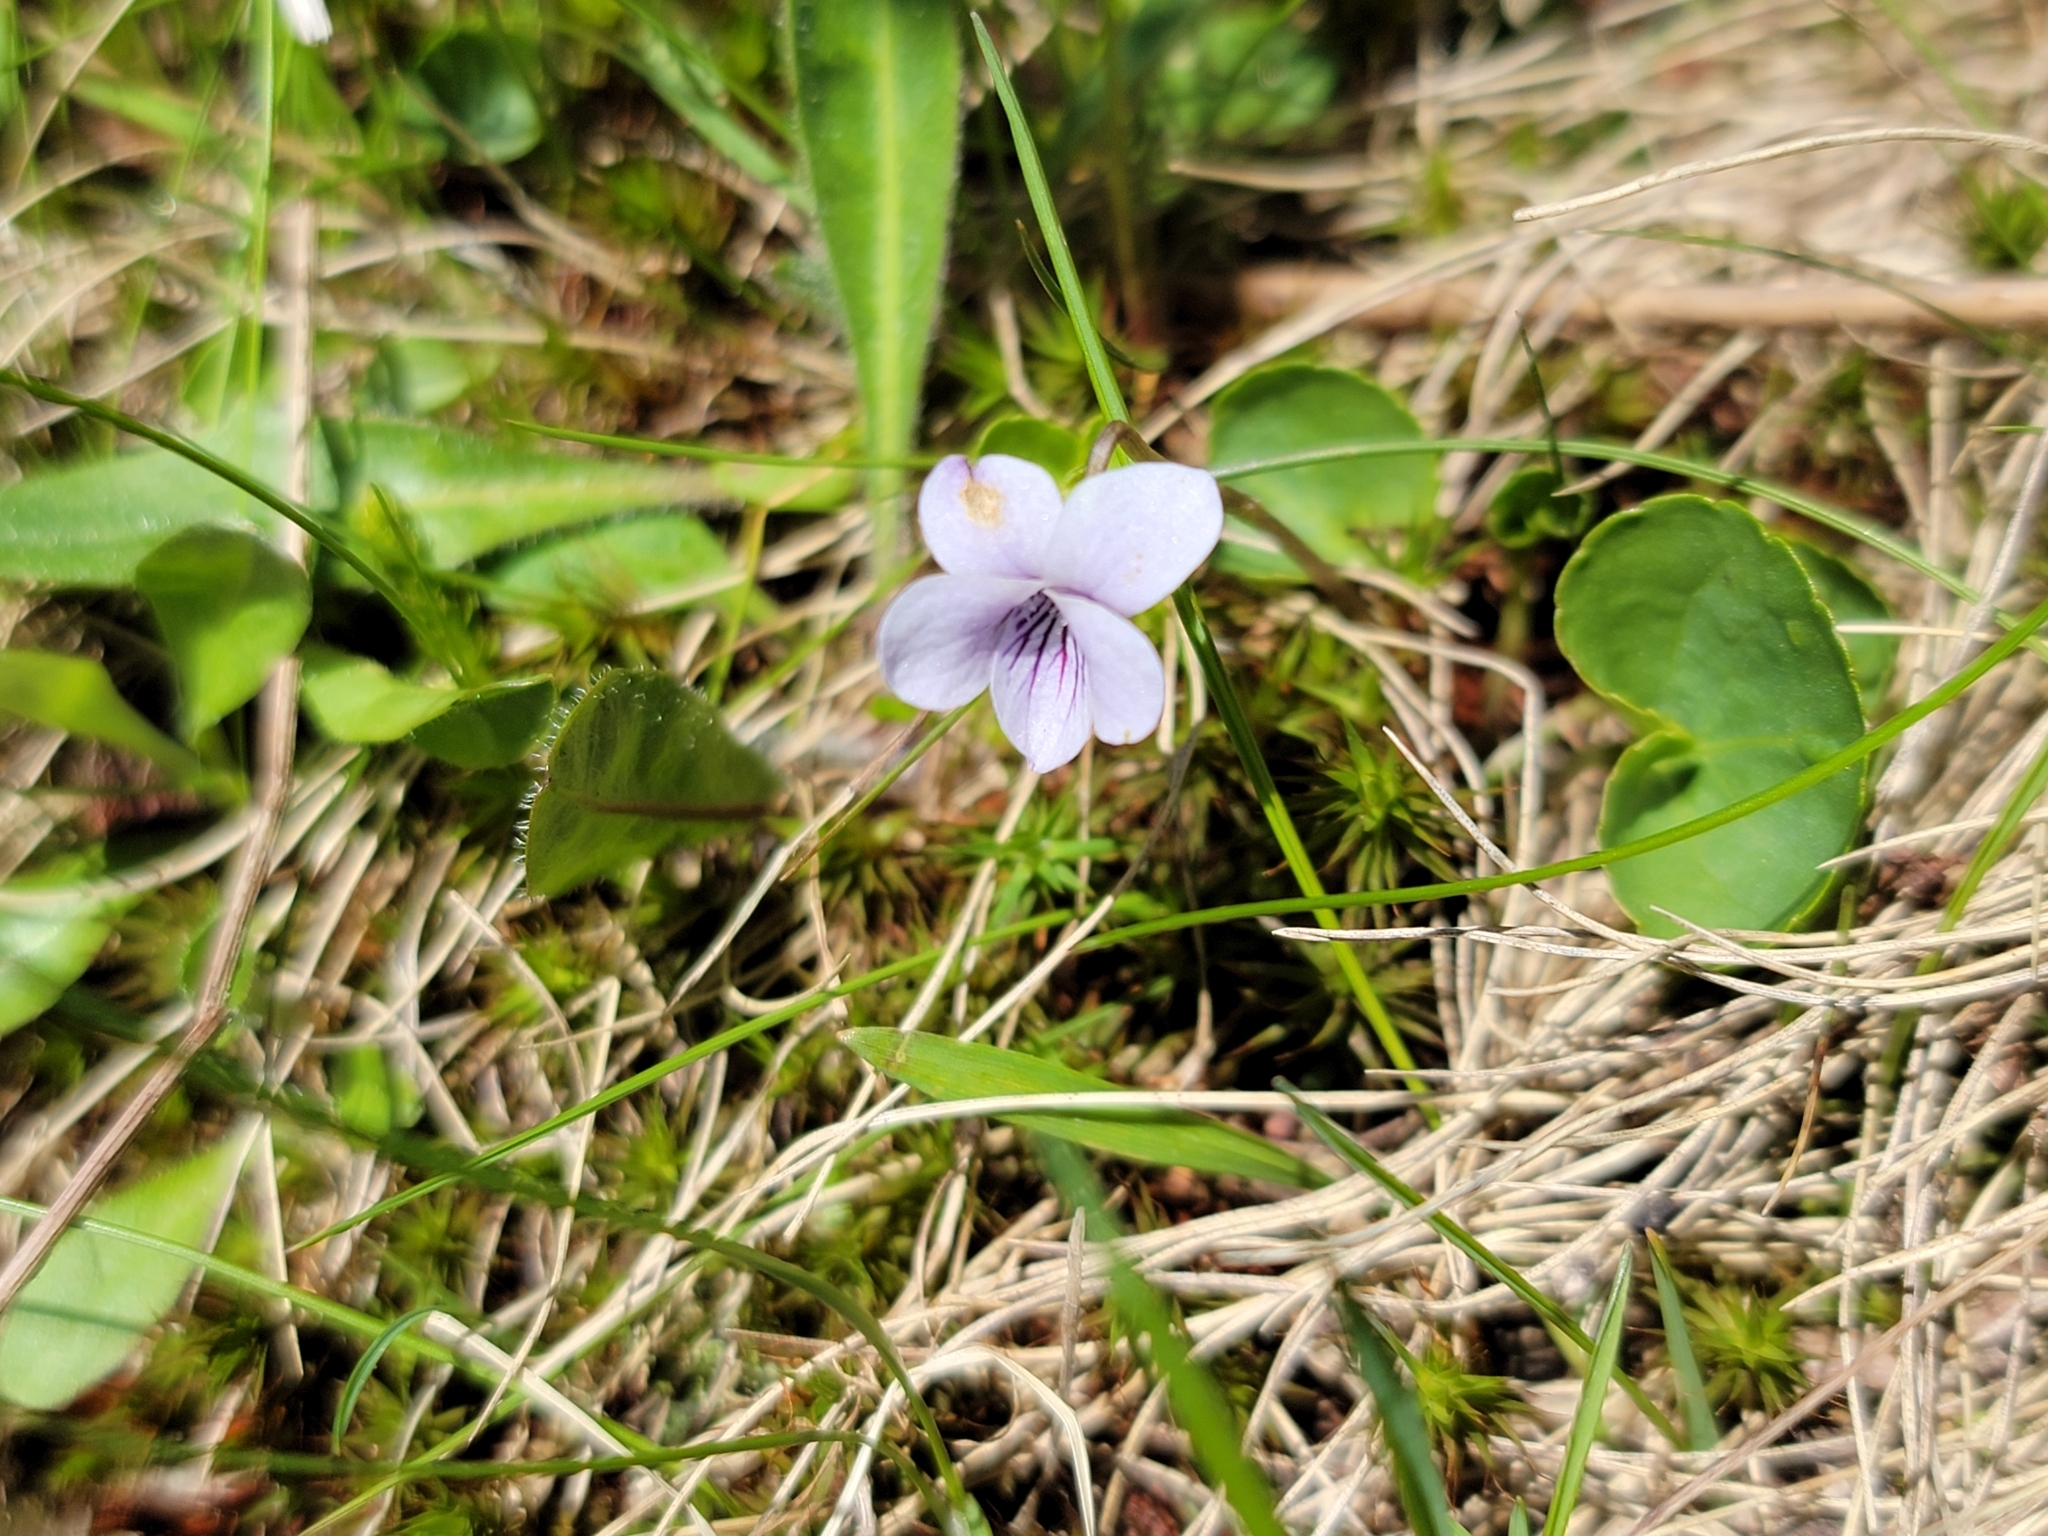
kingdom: Plantae
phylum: Tracheophyta
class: Magnoliopsida
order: Malpighiales
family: Violaceae
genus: Viola
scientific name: Viola palustris
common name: Marsh violet
